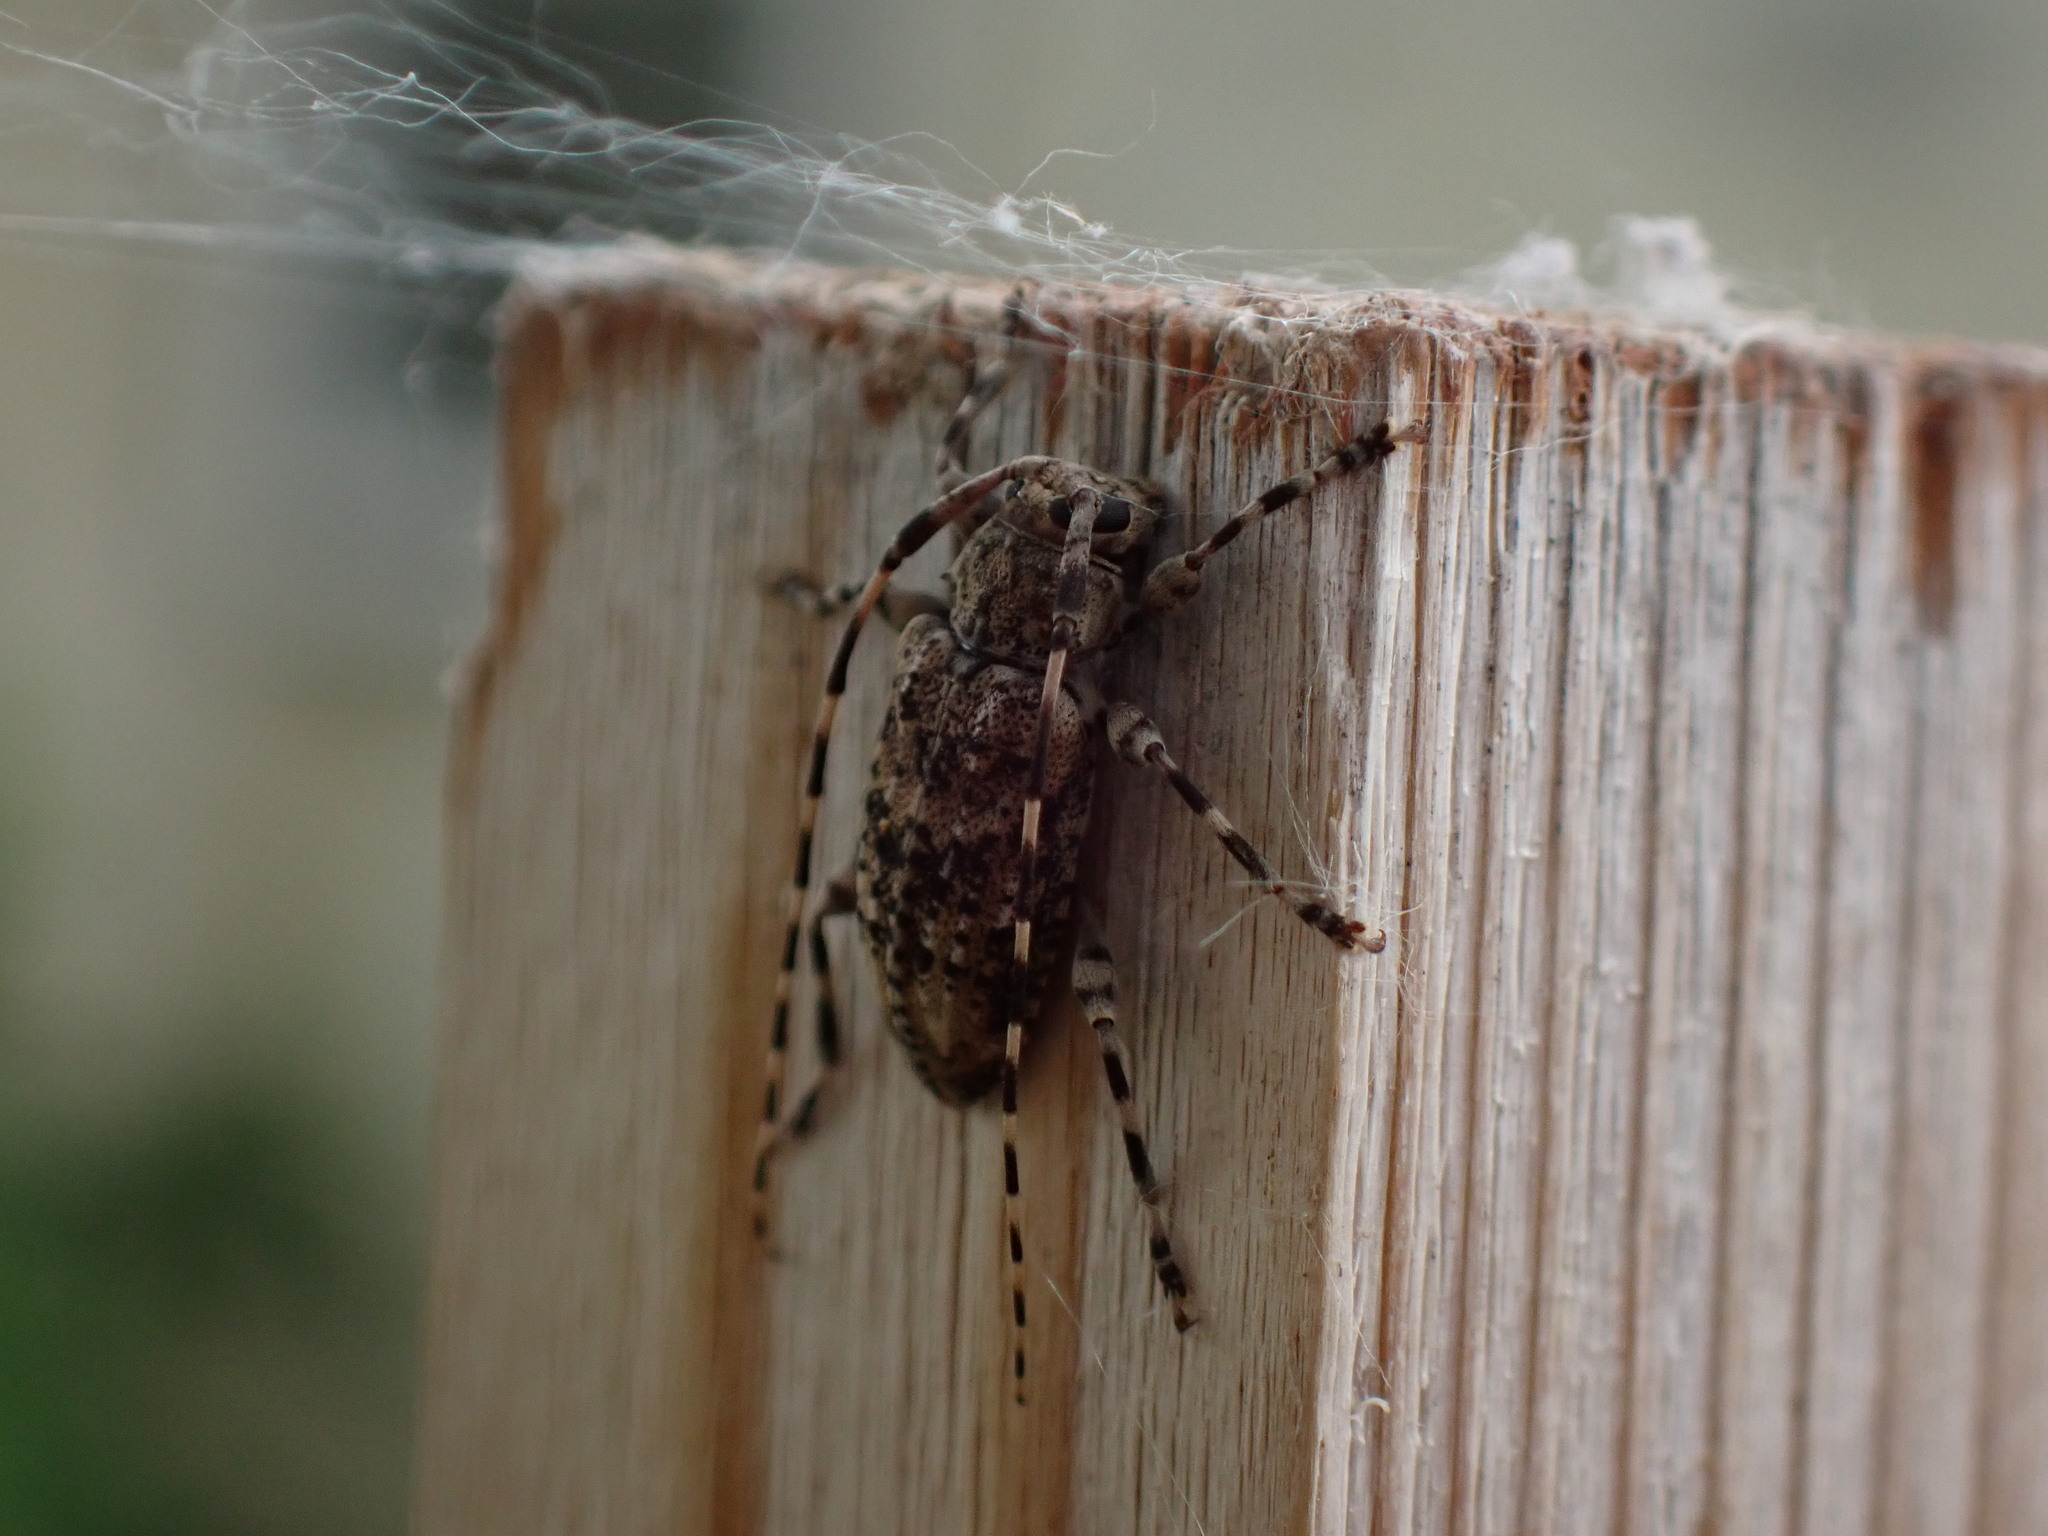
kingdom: Animalia
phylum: Arthropoda
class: Insecta
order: Coleoptera
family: Cerambycidae
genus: Astyleiopus
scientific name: Astyleiopus variegatus
